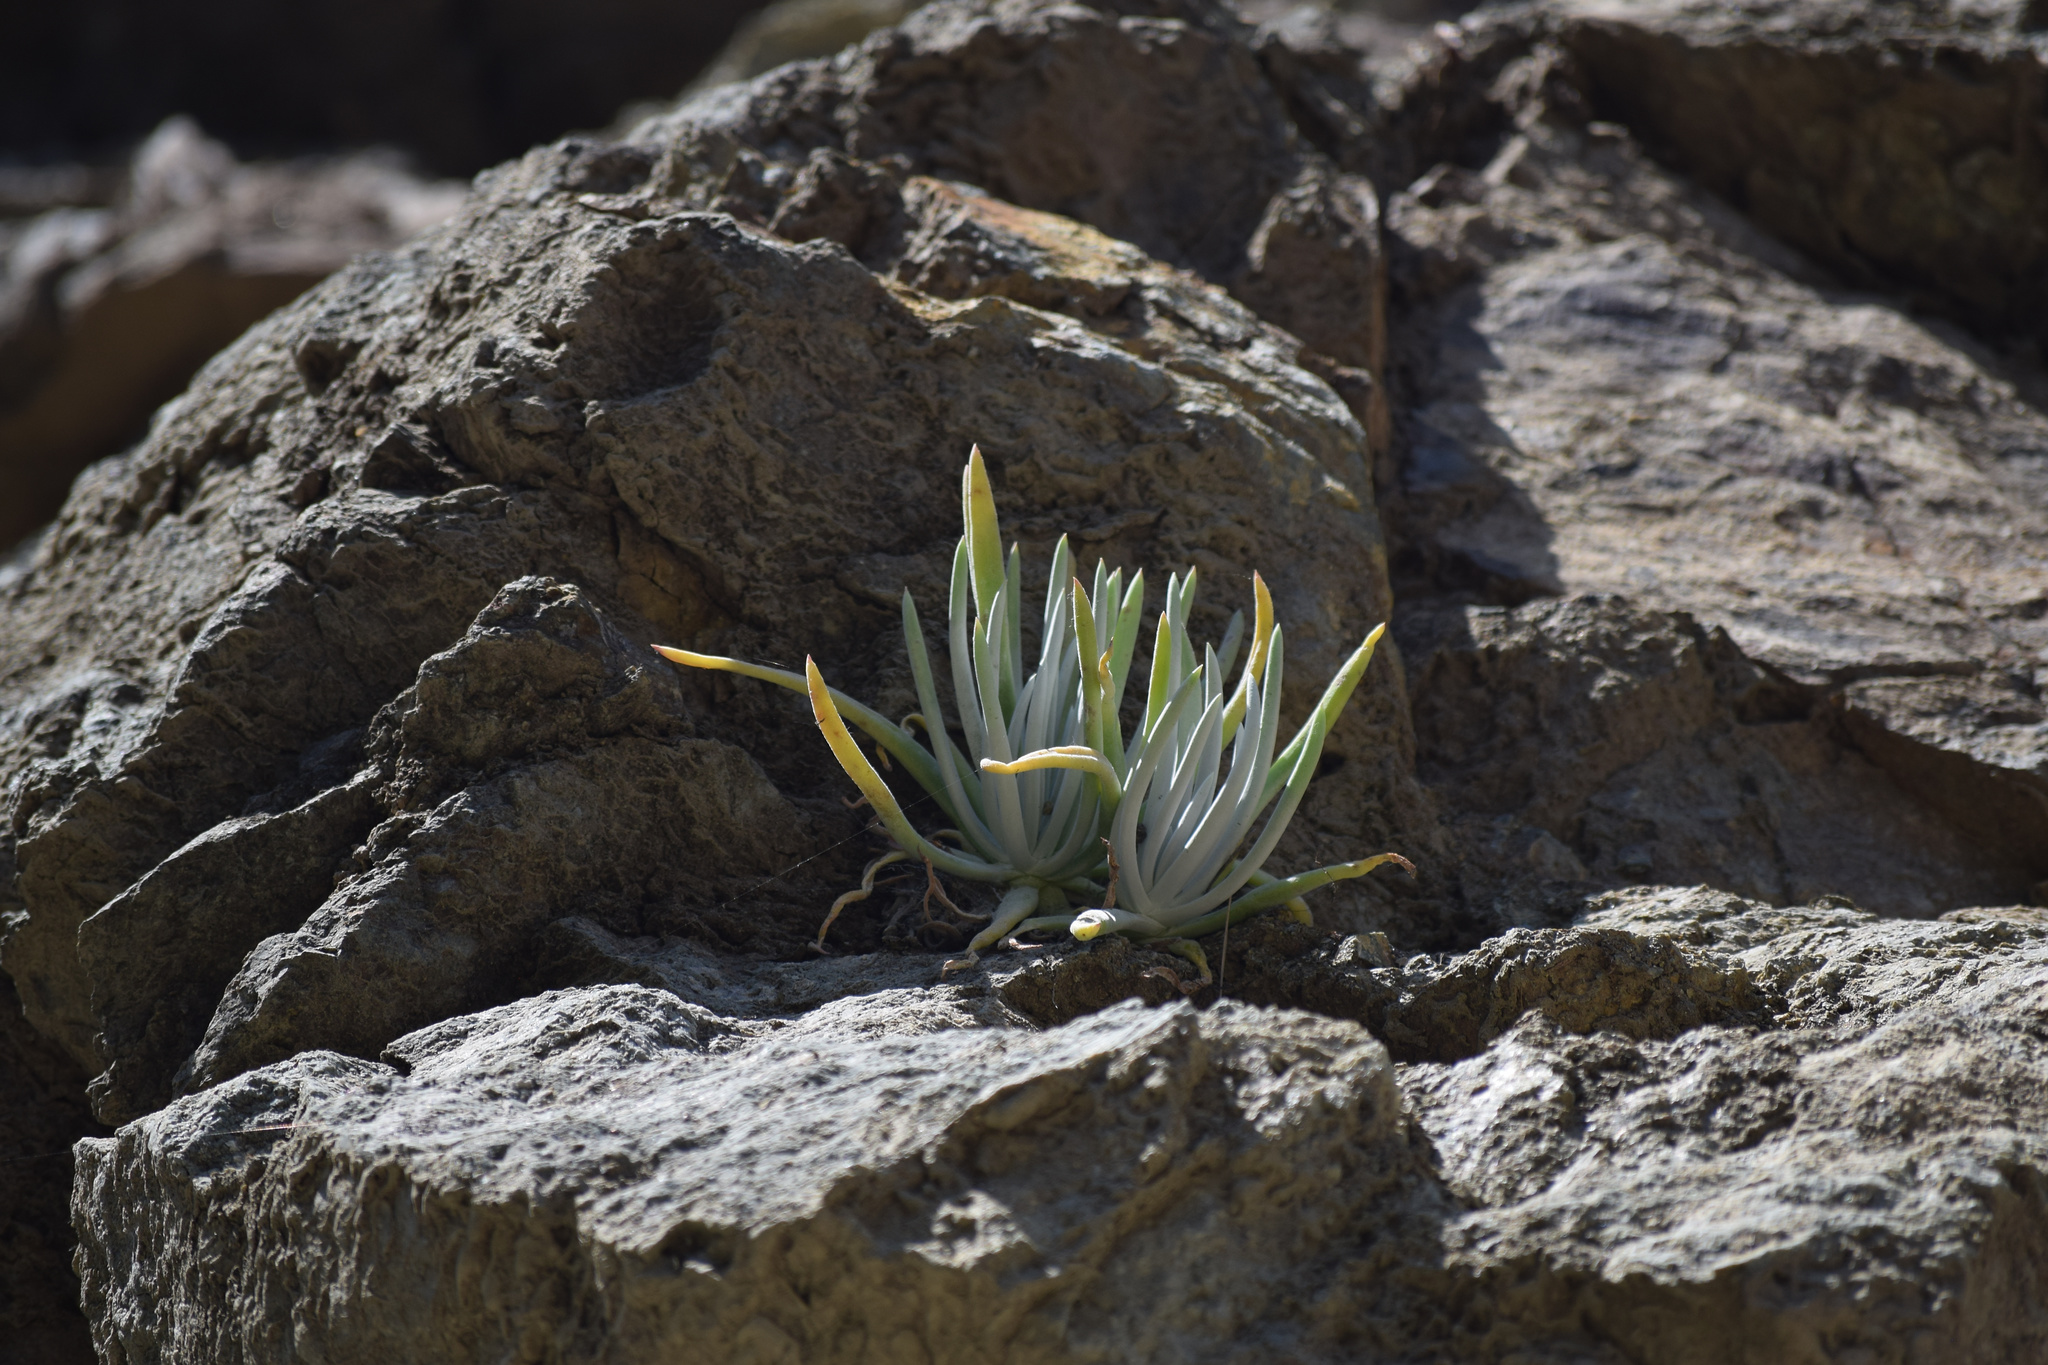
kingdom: Plantae
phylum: Tracheophyta
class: Magnoliopsida
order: Saxifragales
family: Crassulaceae
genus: Dudleya
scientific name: Dudleya densiflora
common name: San gabriel mountains dudleya
